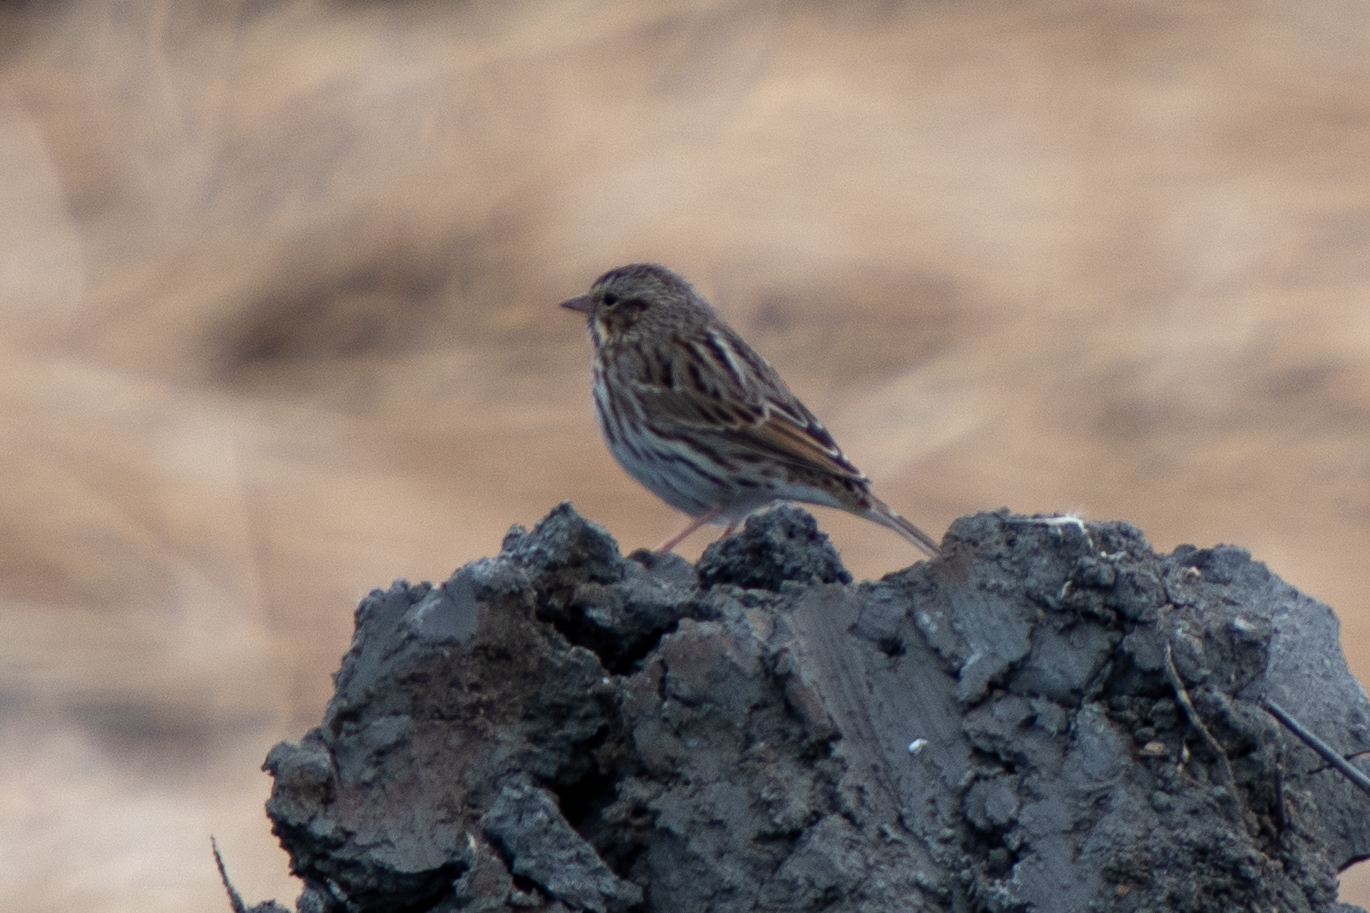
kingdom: Animalia
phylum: Chordata
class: Aves
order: Passeriformes
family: Passerellidae
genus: Passerculus
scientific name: Passerculus sandwichensis
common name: Savannah sparrow
